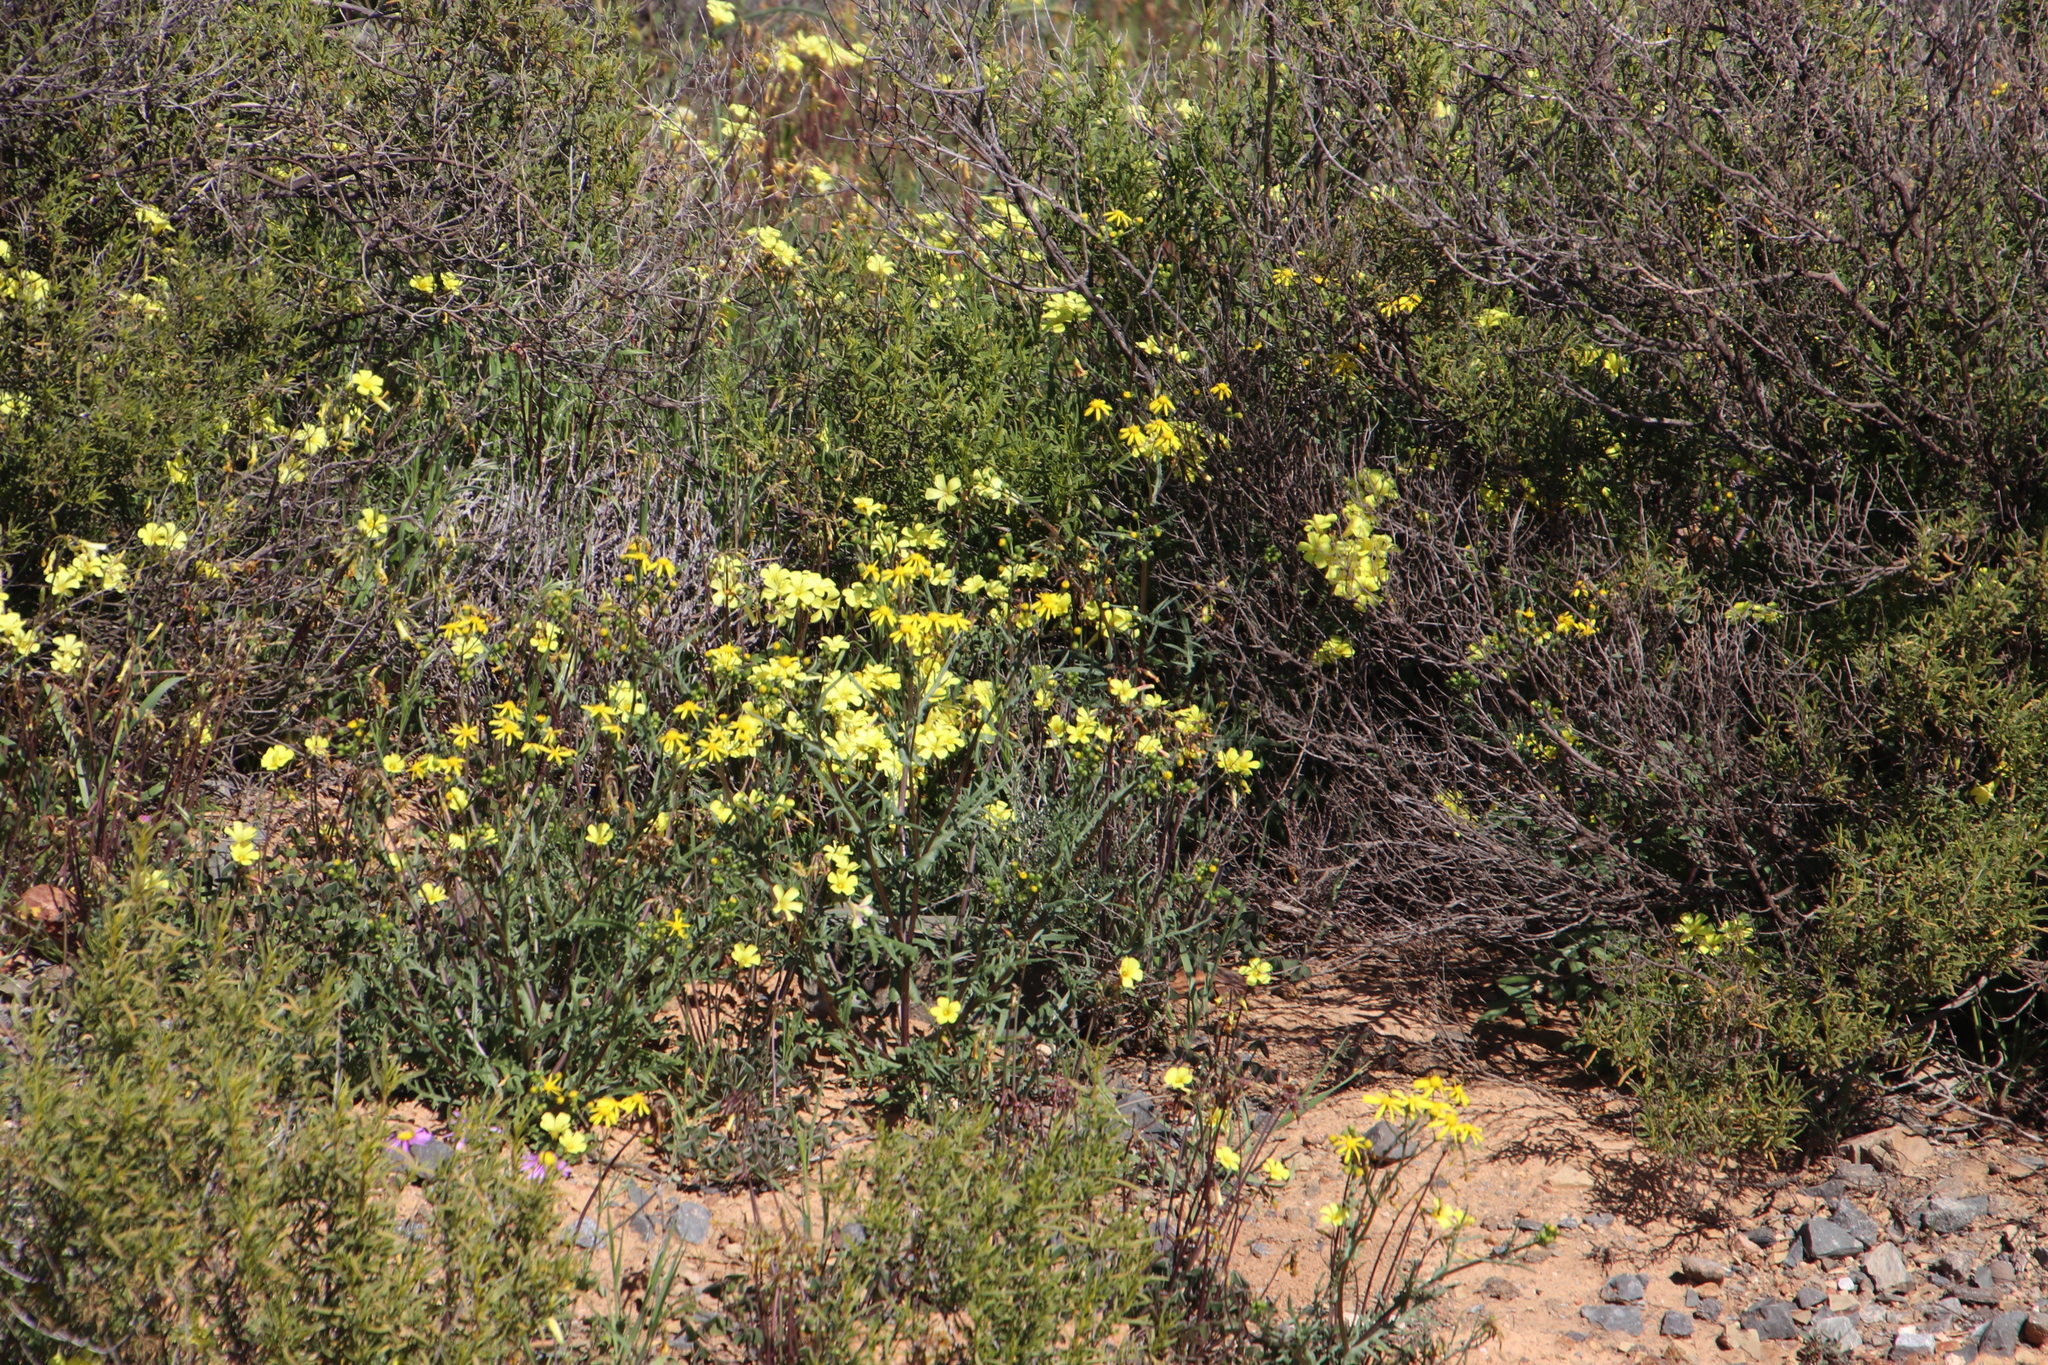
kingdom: Plantae
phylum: Tracheophyta
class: Magnoliopsida
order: Oxalidales
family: Oxalidaceae
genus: Oxalis
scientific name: Oxalis pes-caprae
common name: Bermuda-buttercup
